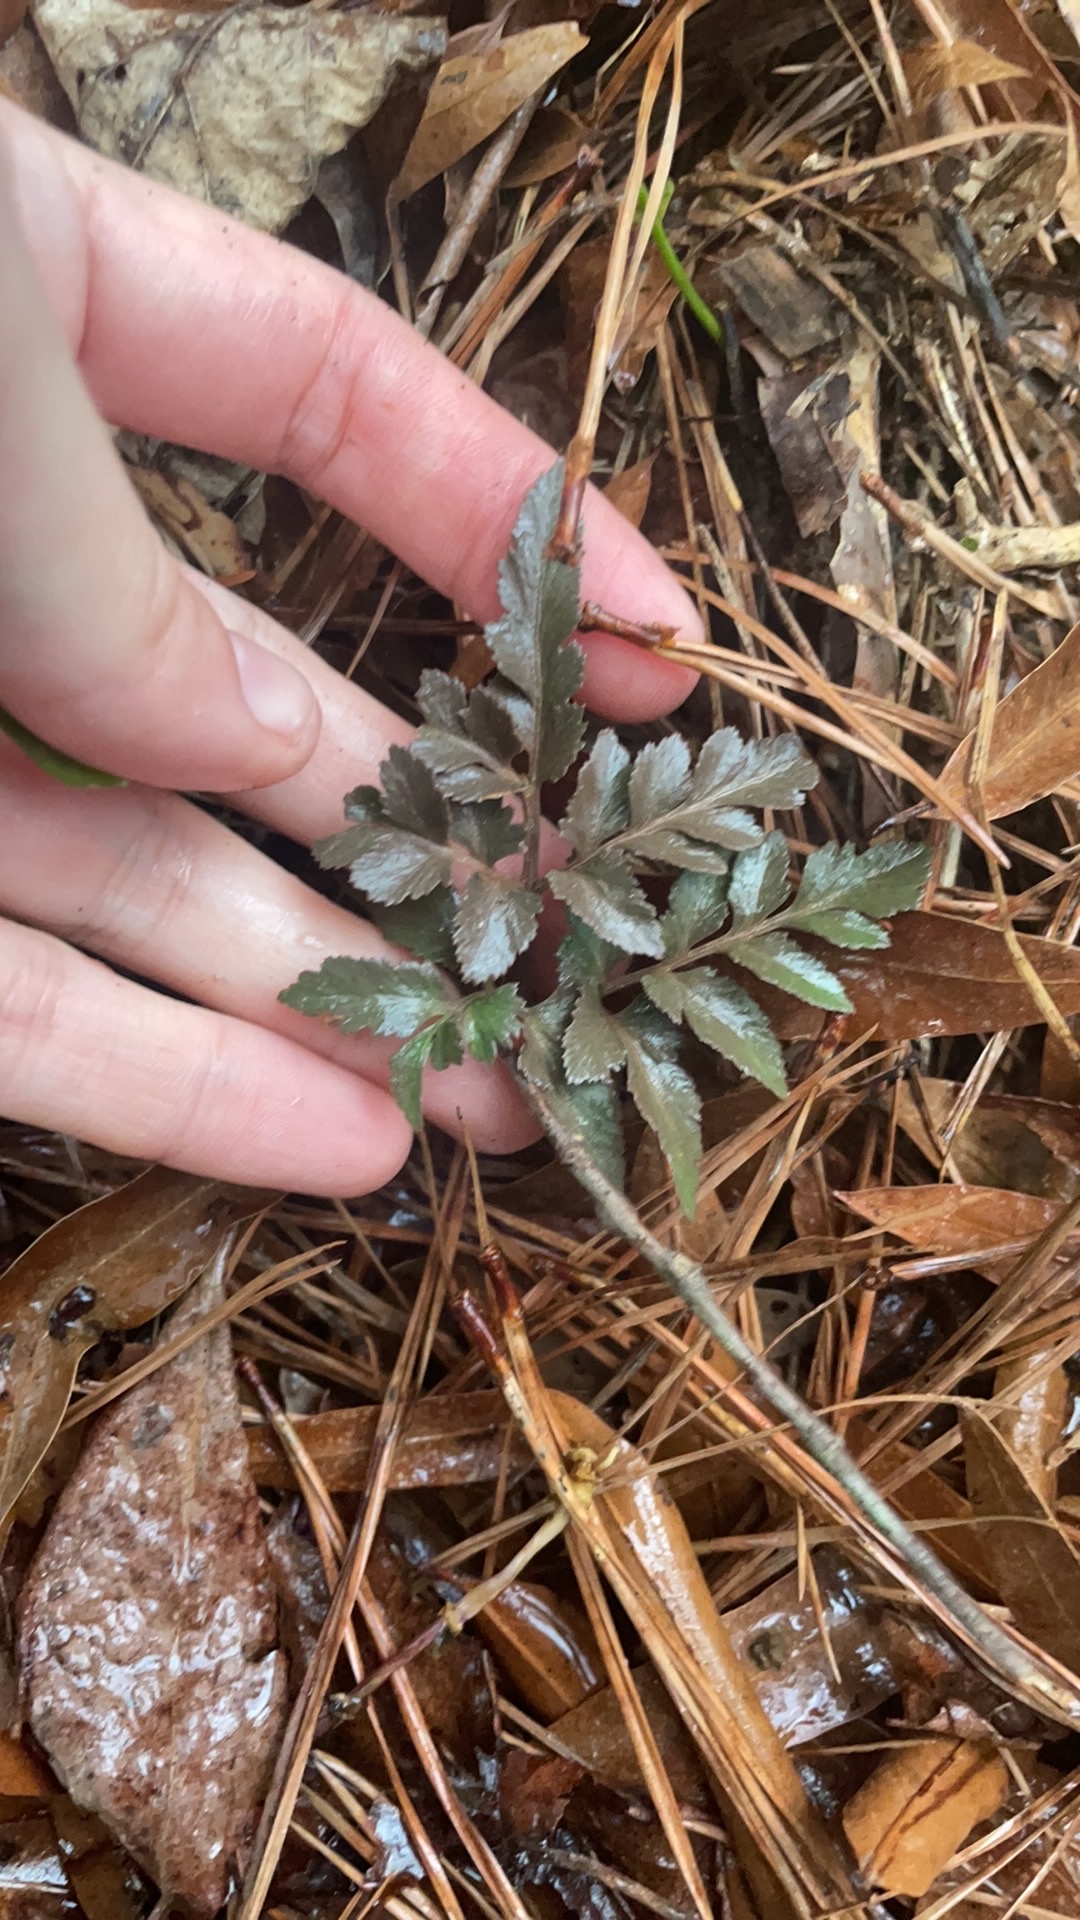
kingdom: Plantae
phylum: Tracheophyta
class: Polypodiopsida
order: Ophioglossales
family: Ophioglossaceae
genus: Sceptridium
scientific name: Sceptridium dissectum
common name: Cut-leaved grapefern
